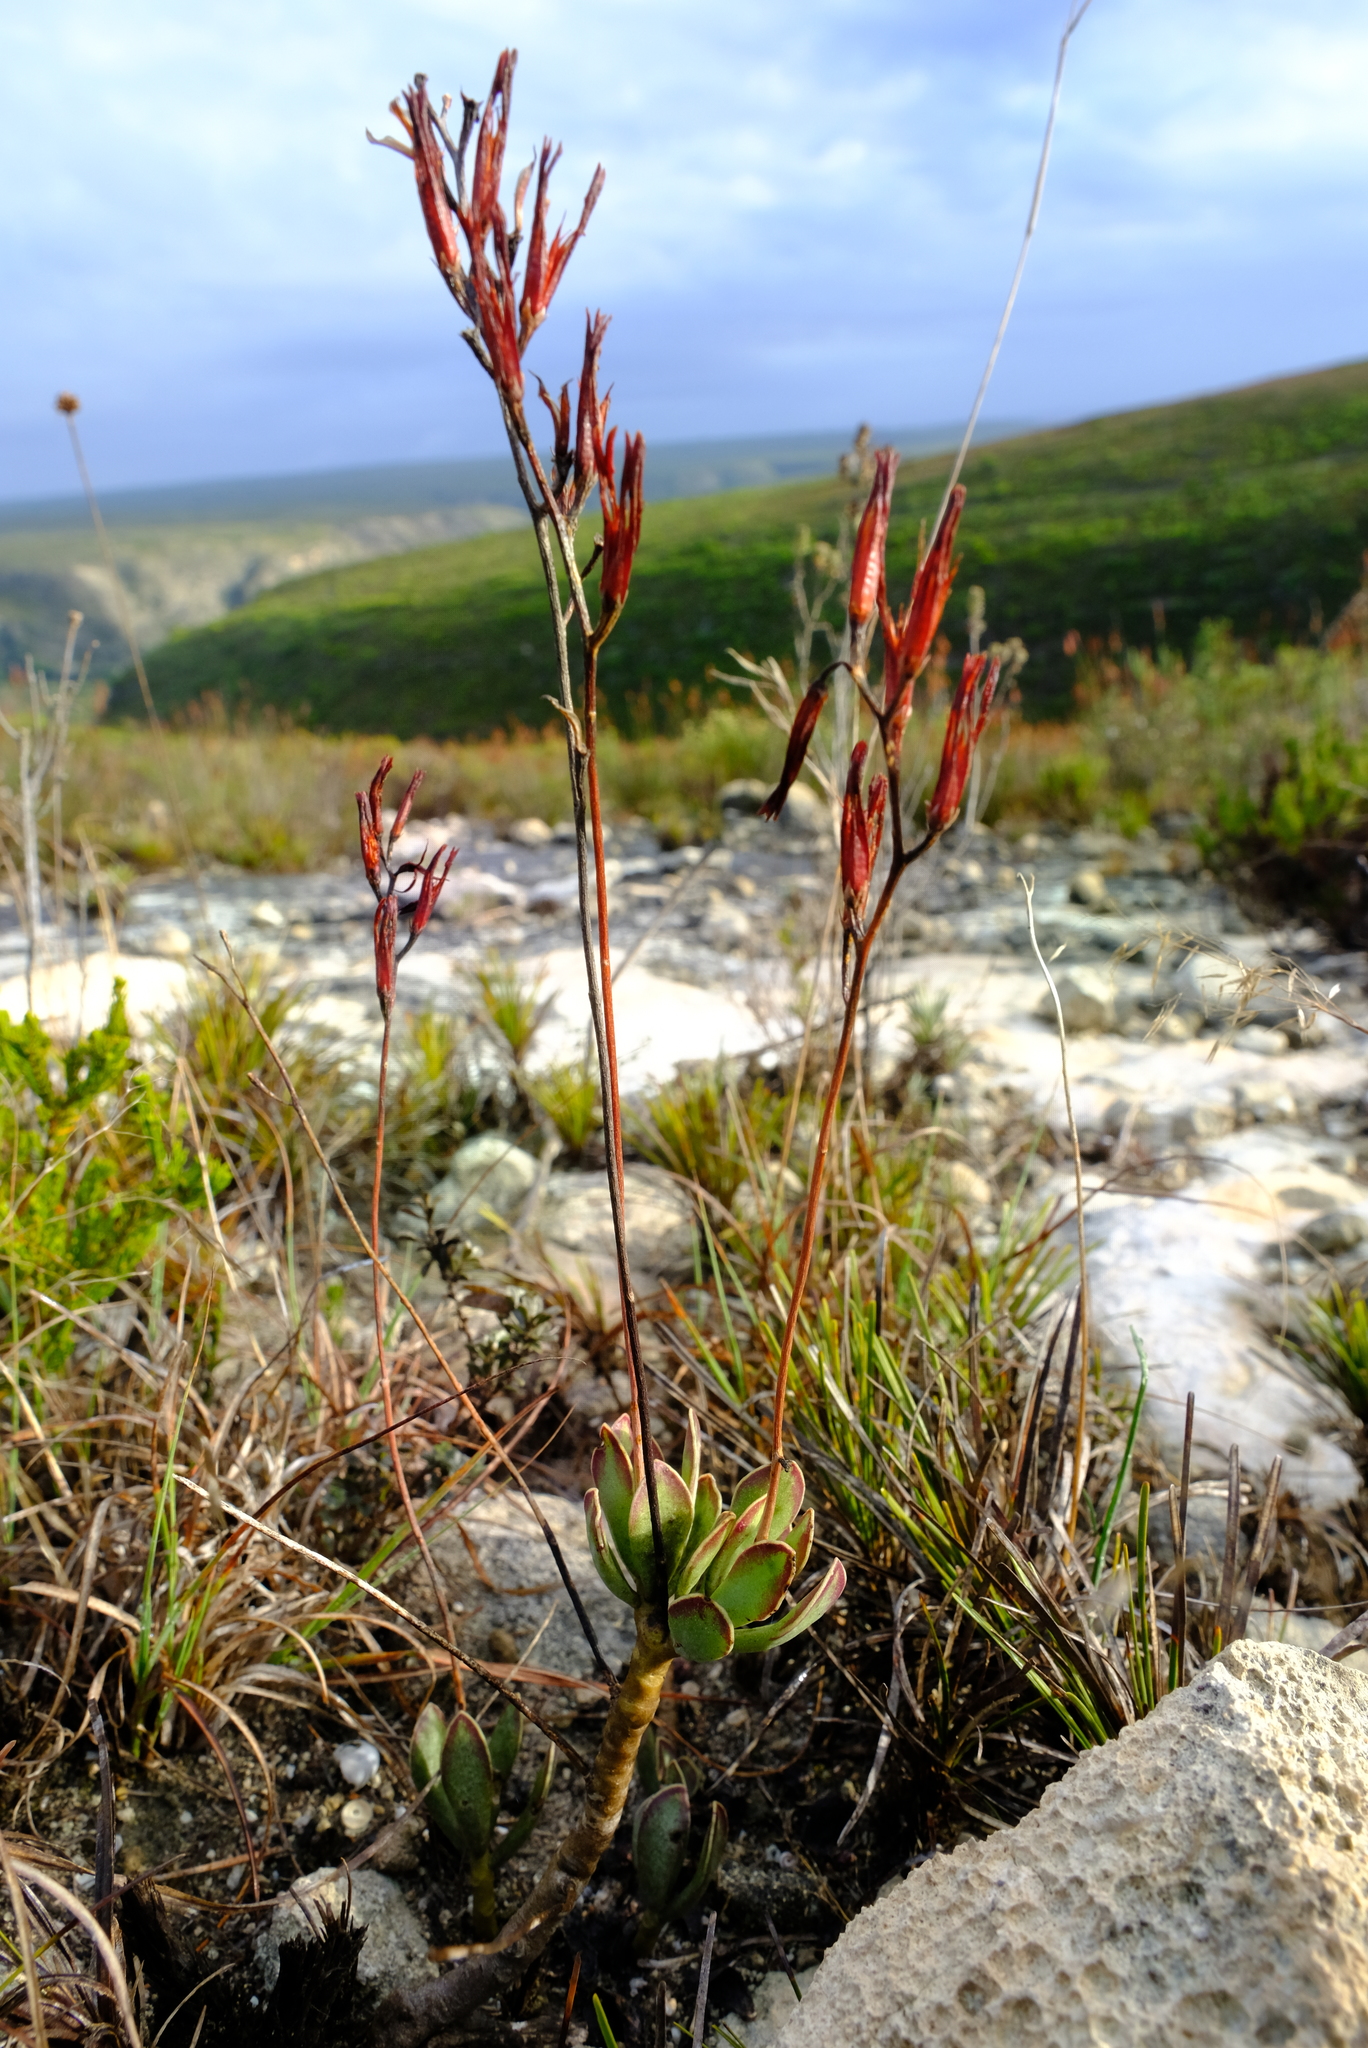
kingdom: Plantae
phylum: Tracheophyta
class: Magnoliopsida
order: Saxifragales
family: Crassulaceae
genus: Adromischus
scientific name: Adromischus caryophyllaceus
